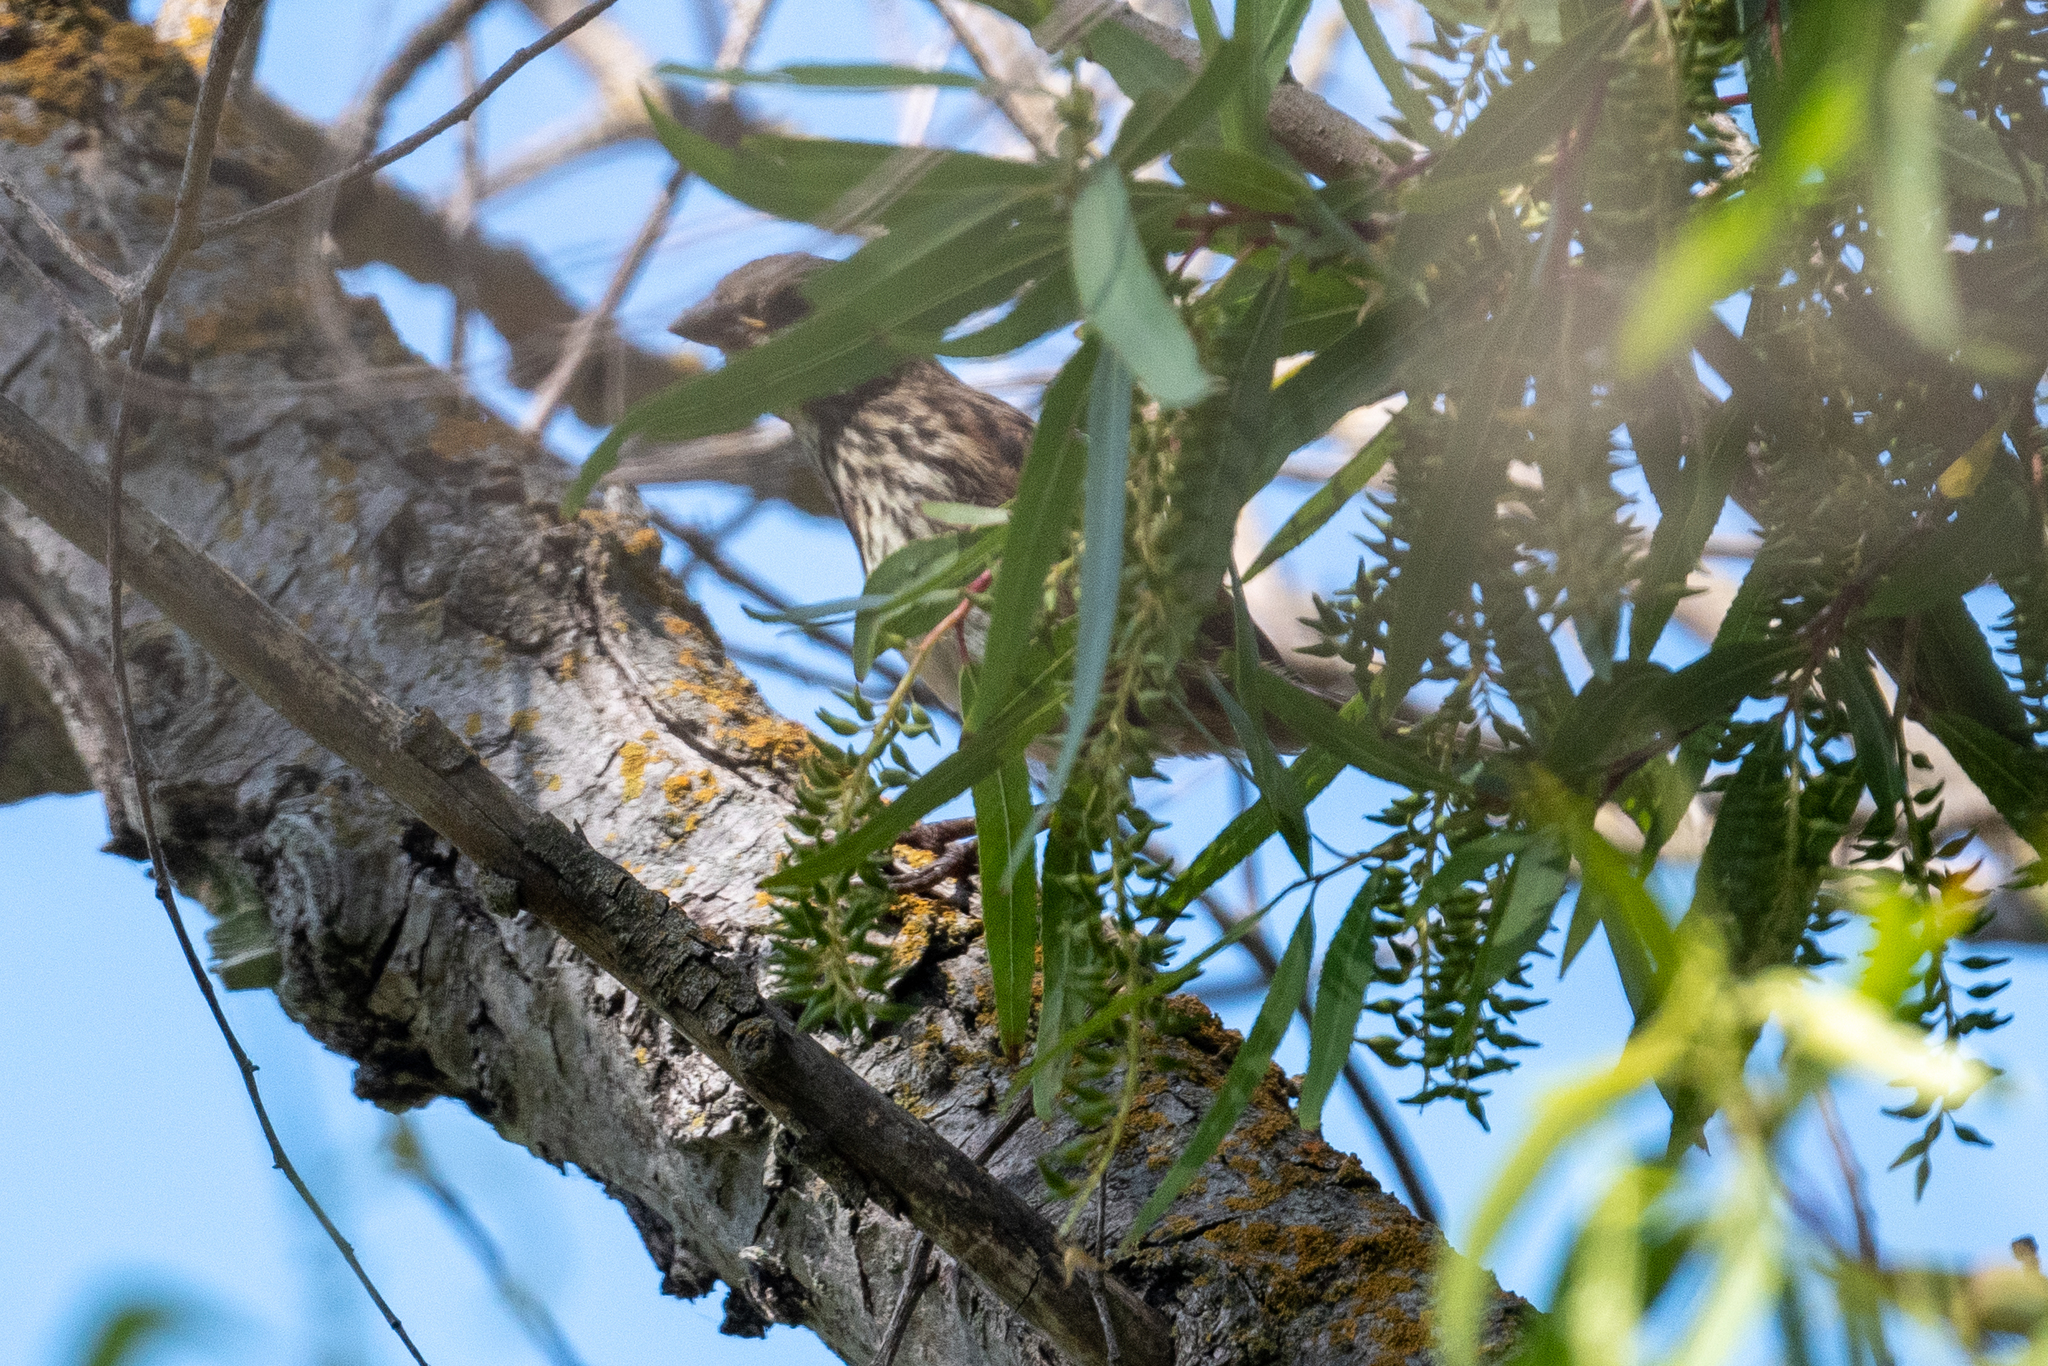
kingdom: Animalia
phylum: Chordata
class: Aves
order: Passeriformes
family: Passerellidae
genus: Melospiza
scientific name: Melospiza melodia
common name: Song sparrow
